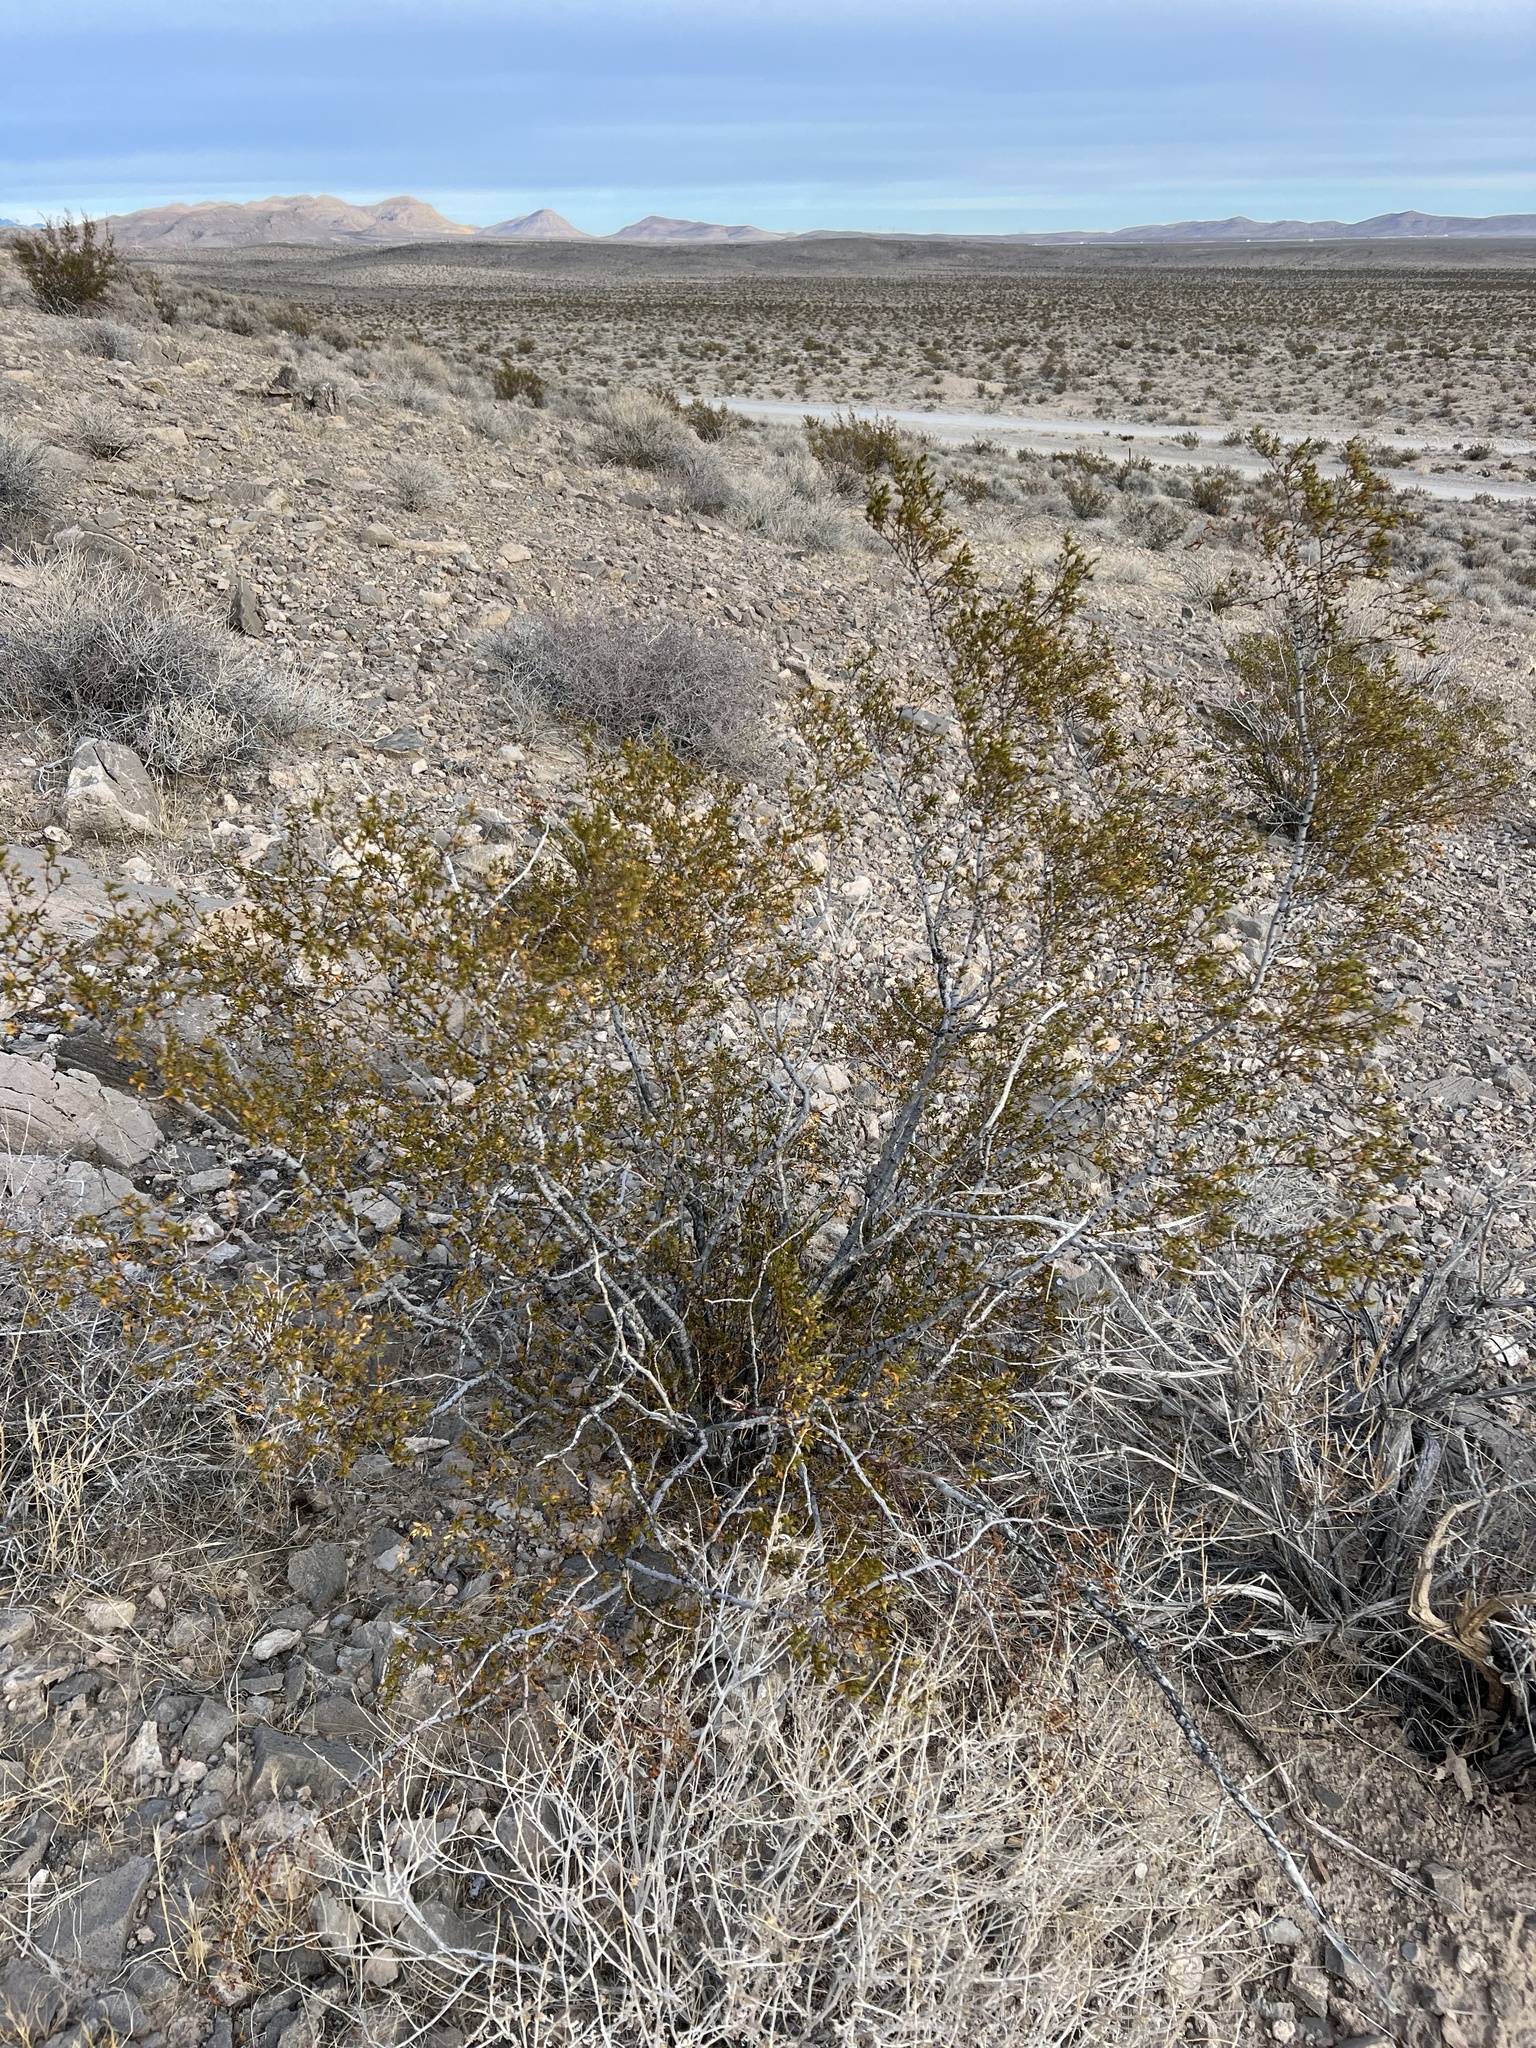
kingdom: Plantae
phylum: Tracheophyta
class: Magnoliopsida
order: Zygophyllales
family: Zygophyllaceae
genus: Larrea
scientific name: Larrea tridentata
